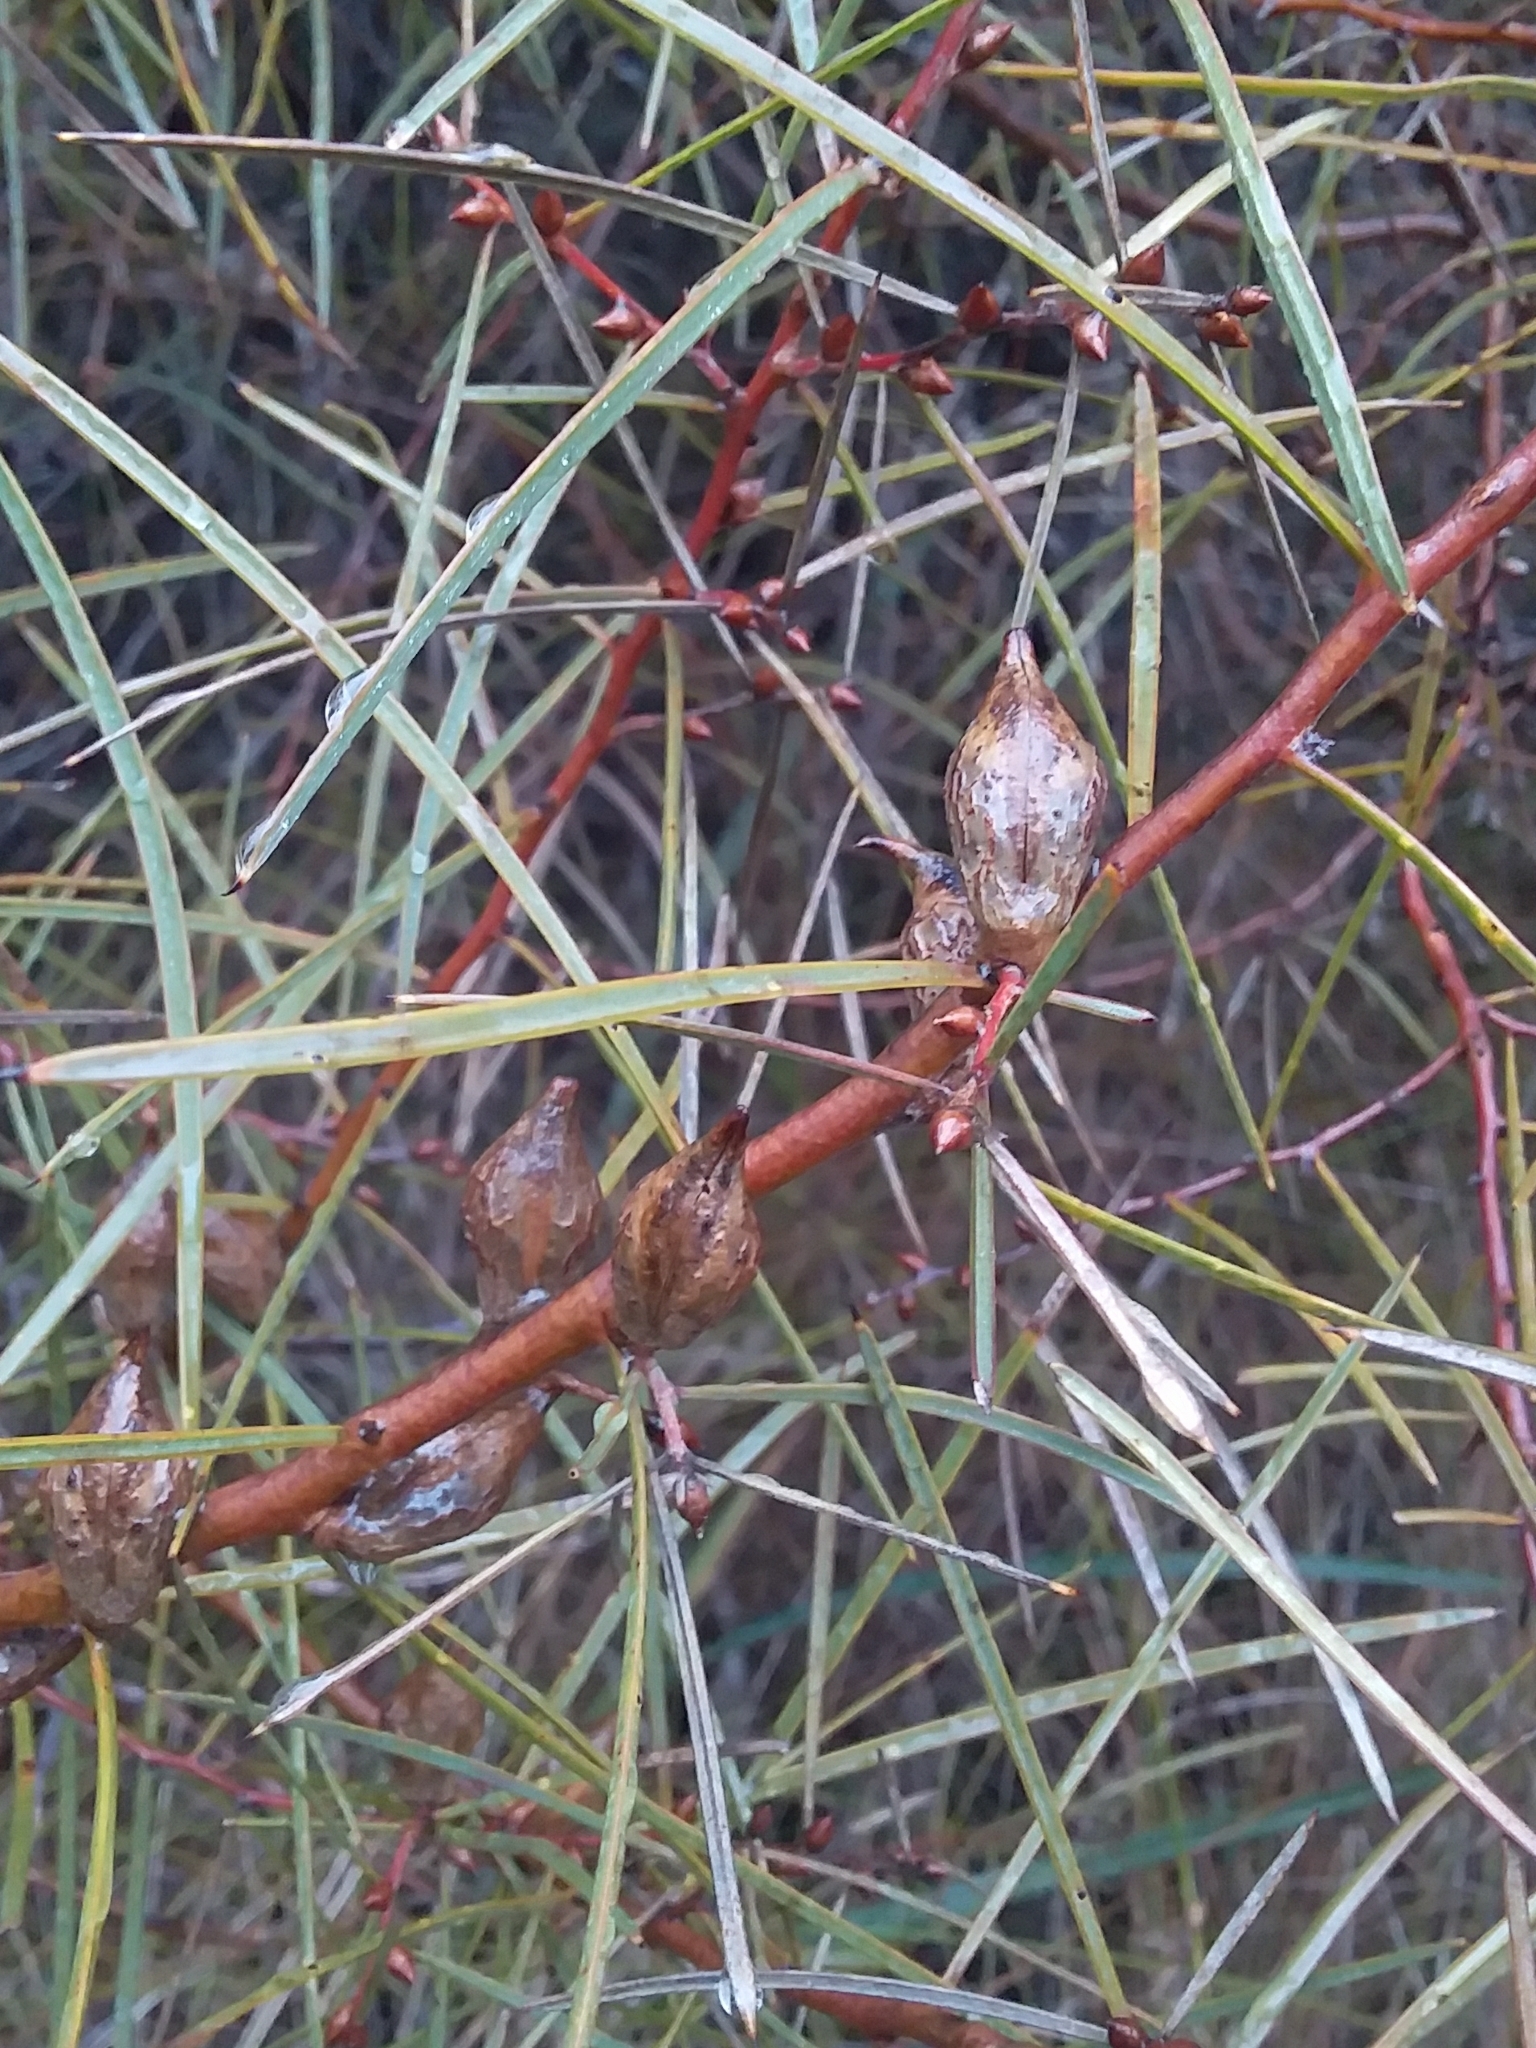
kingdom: Plantae
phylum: Tracheophyta
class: Magnoliopsida
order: Proteales
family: Proteaceae
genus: Hakea
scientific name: Hakea carinata
